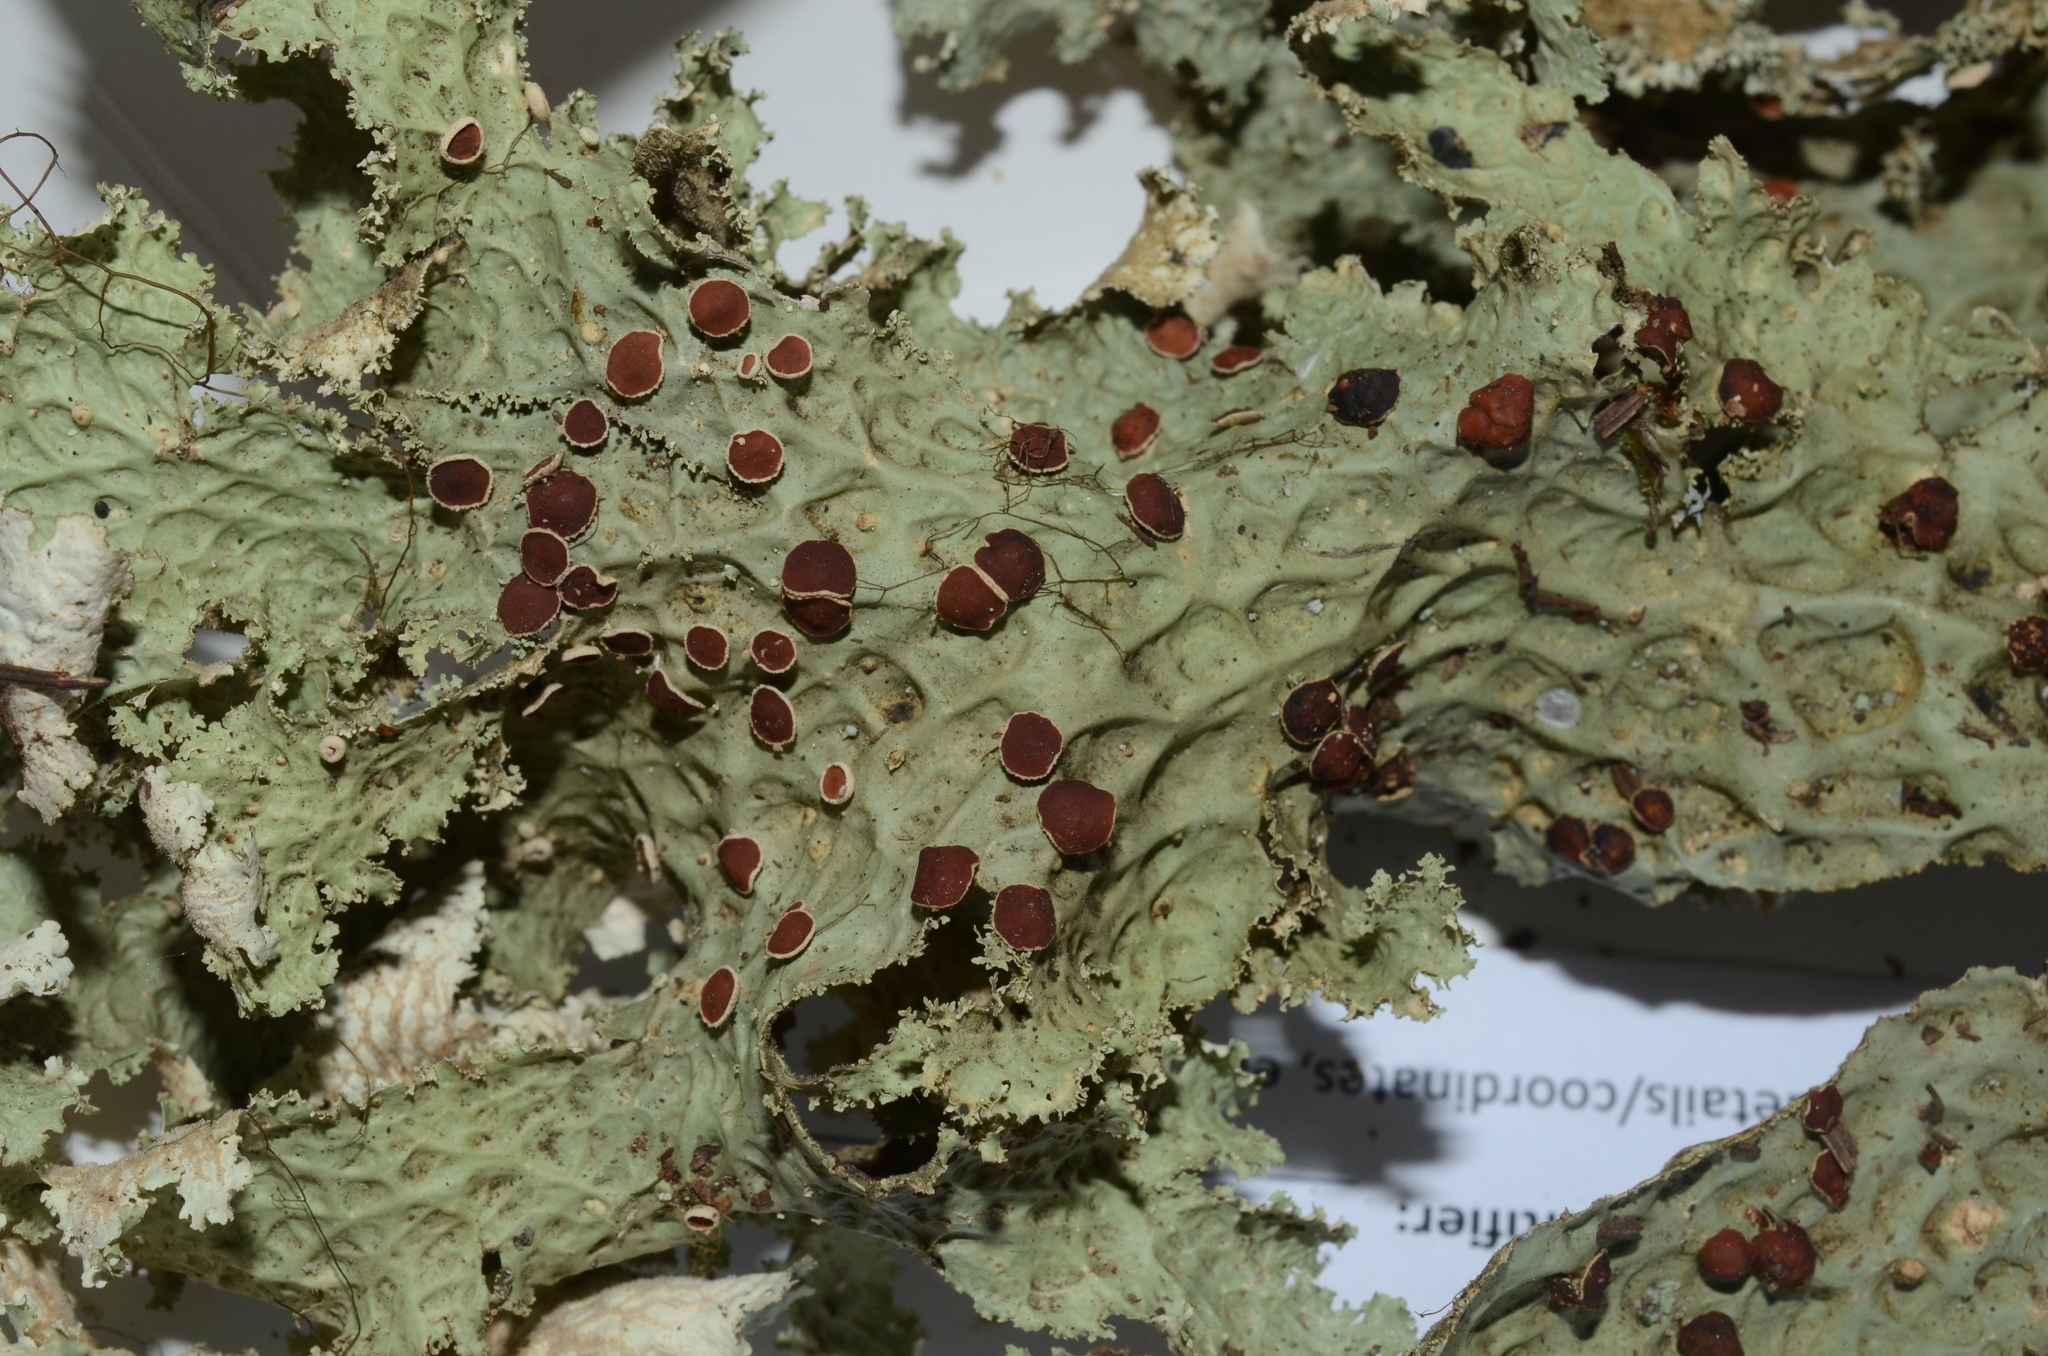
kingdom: Fungi
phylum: Ascomycota
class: Lecanoromycetes
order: Peltigerales
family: Lobariaceae
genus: Lobaria
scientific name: Lobaria oregana
